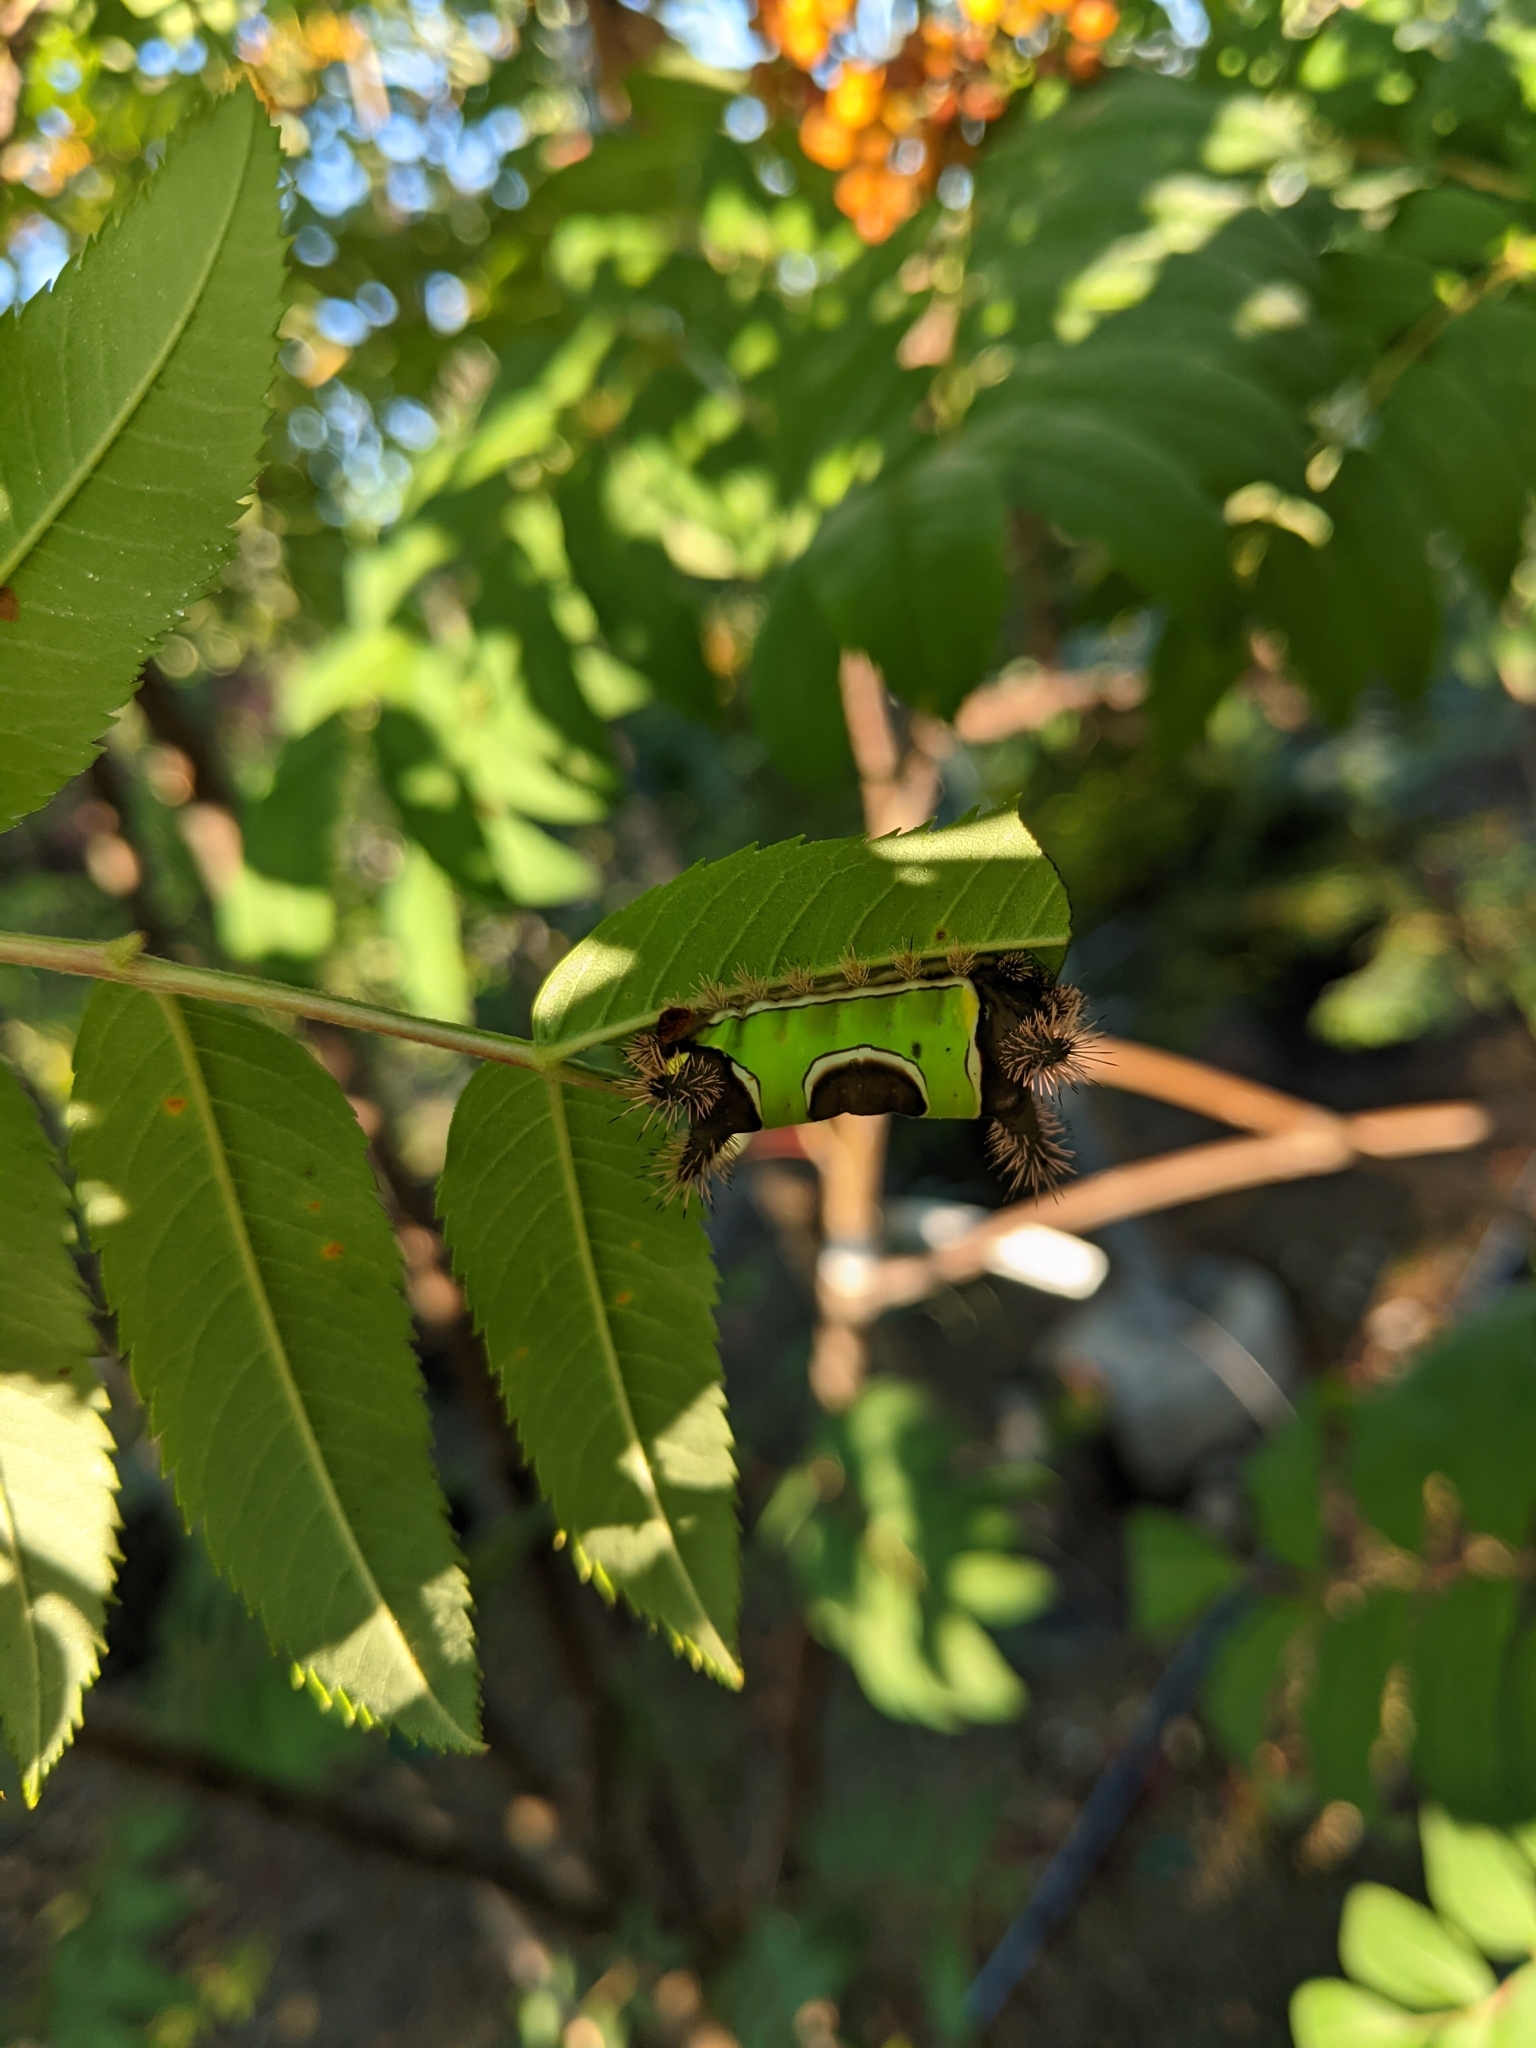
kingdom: Animalia
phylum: Arthropoda
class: Insecta
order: Lepidoptera
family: Limacodidae
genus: Acharia
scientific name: Acharia stimulea
